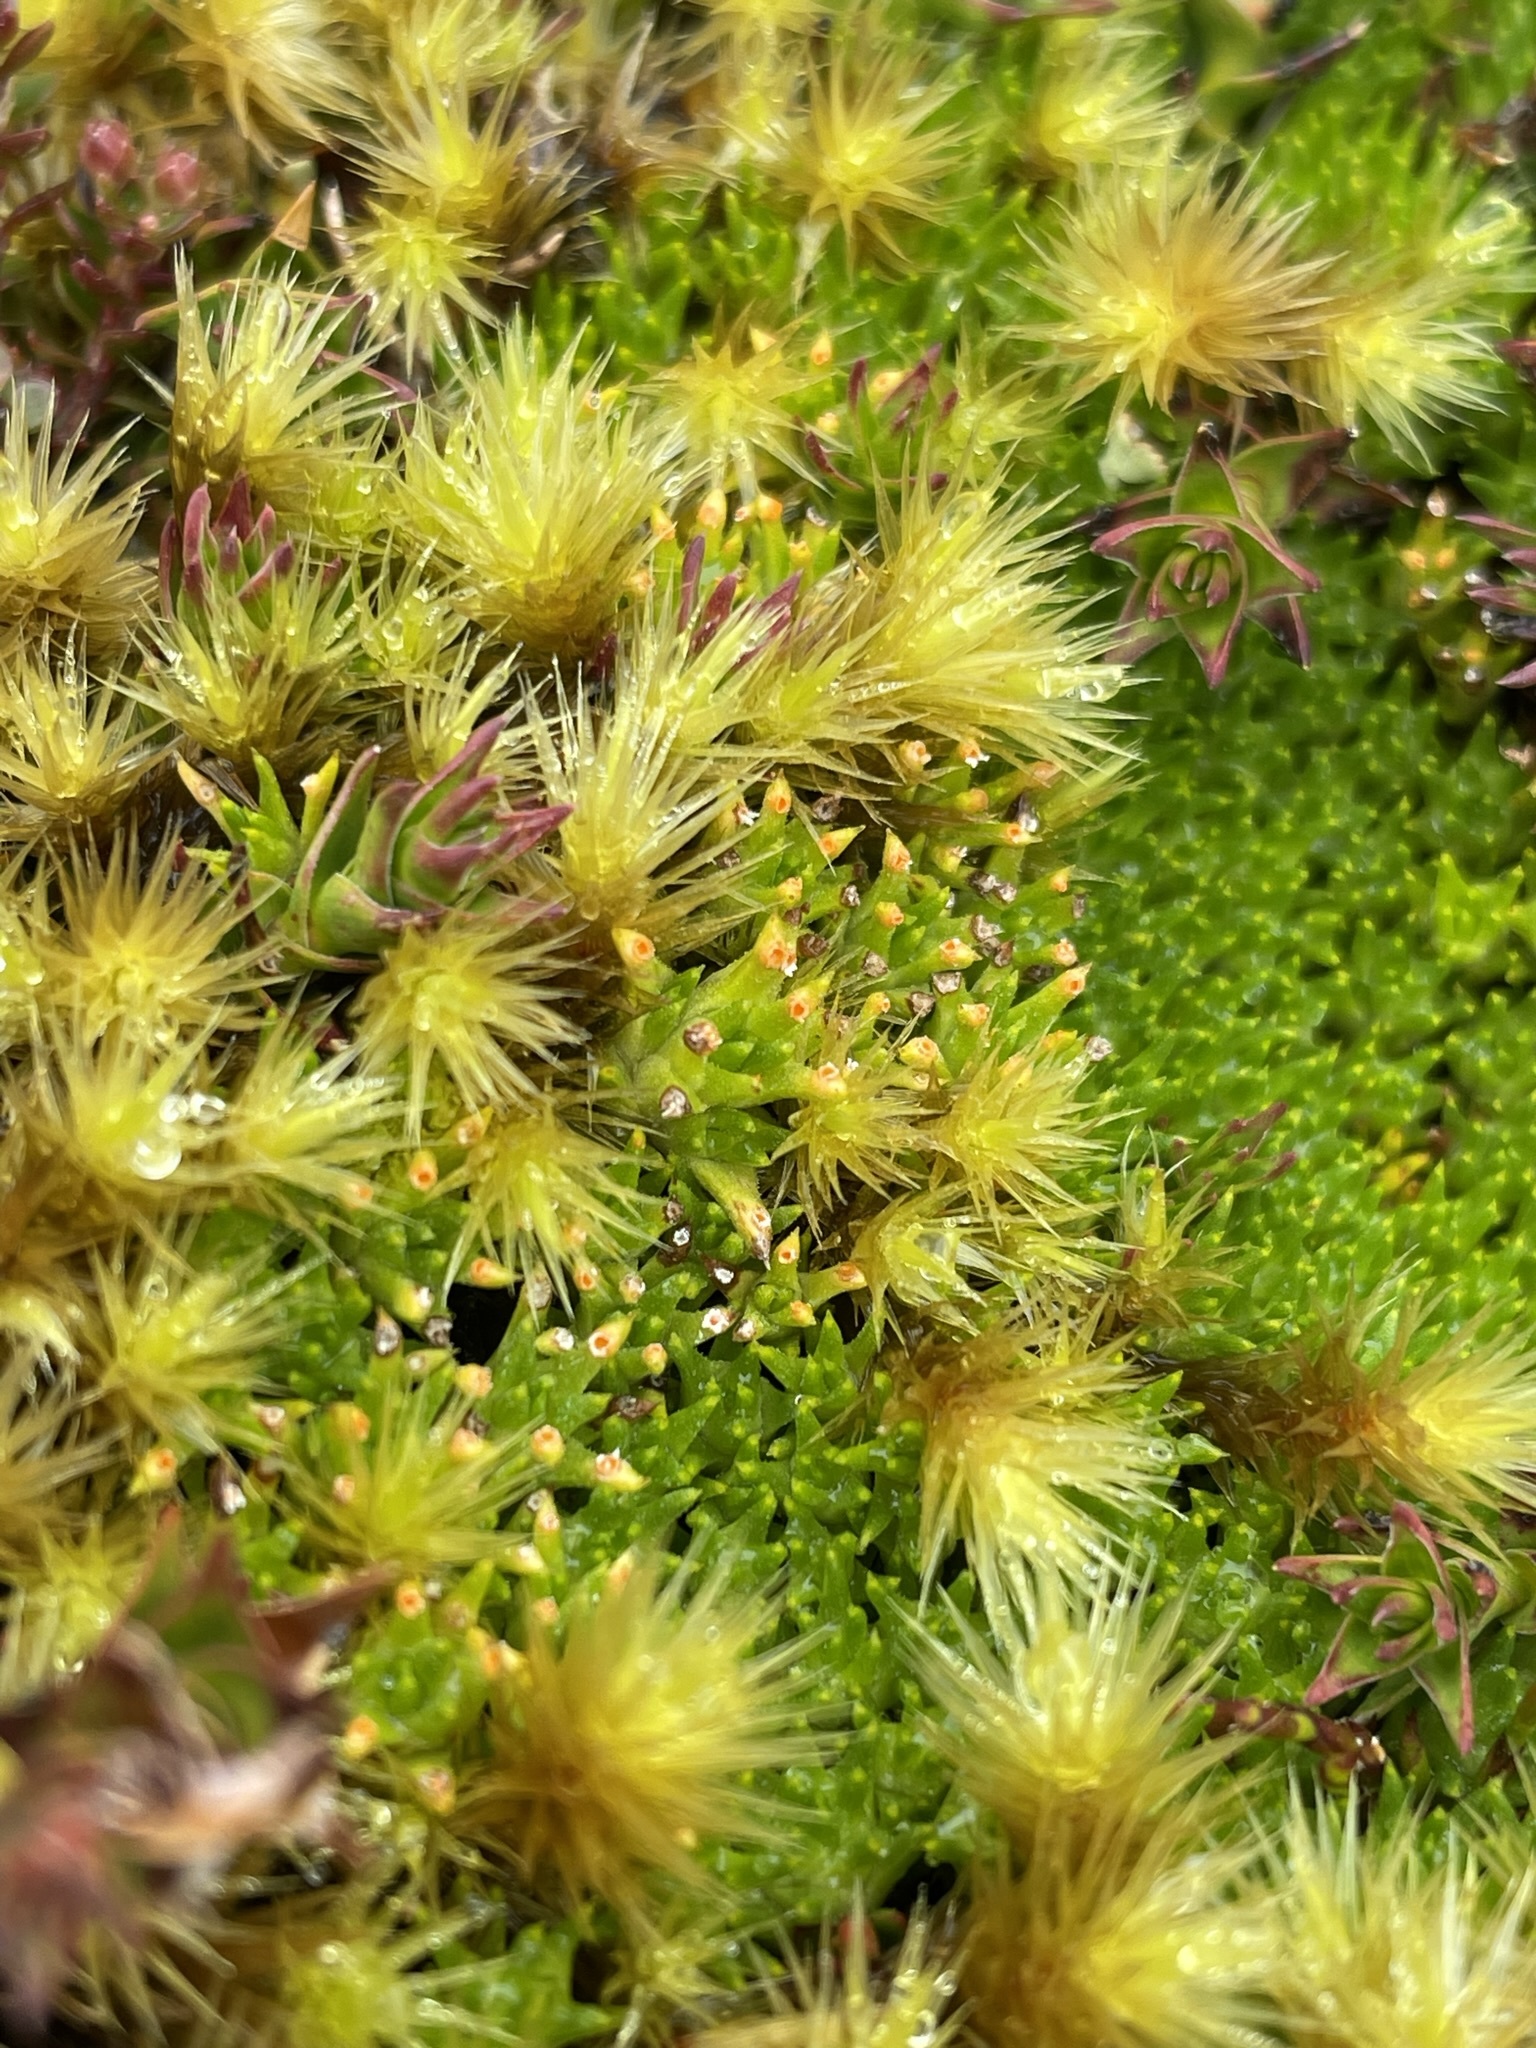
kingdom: Fungi
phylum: Basidiomycota
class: Pucciniomycetes
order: Pucciniales
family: Pucciniaceae
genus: Aecidium
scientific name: Aecidium monocystis
